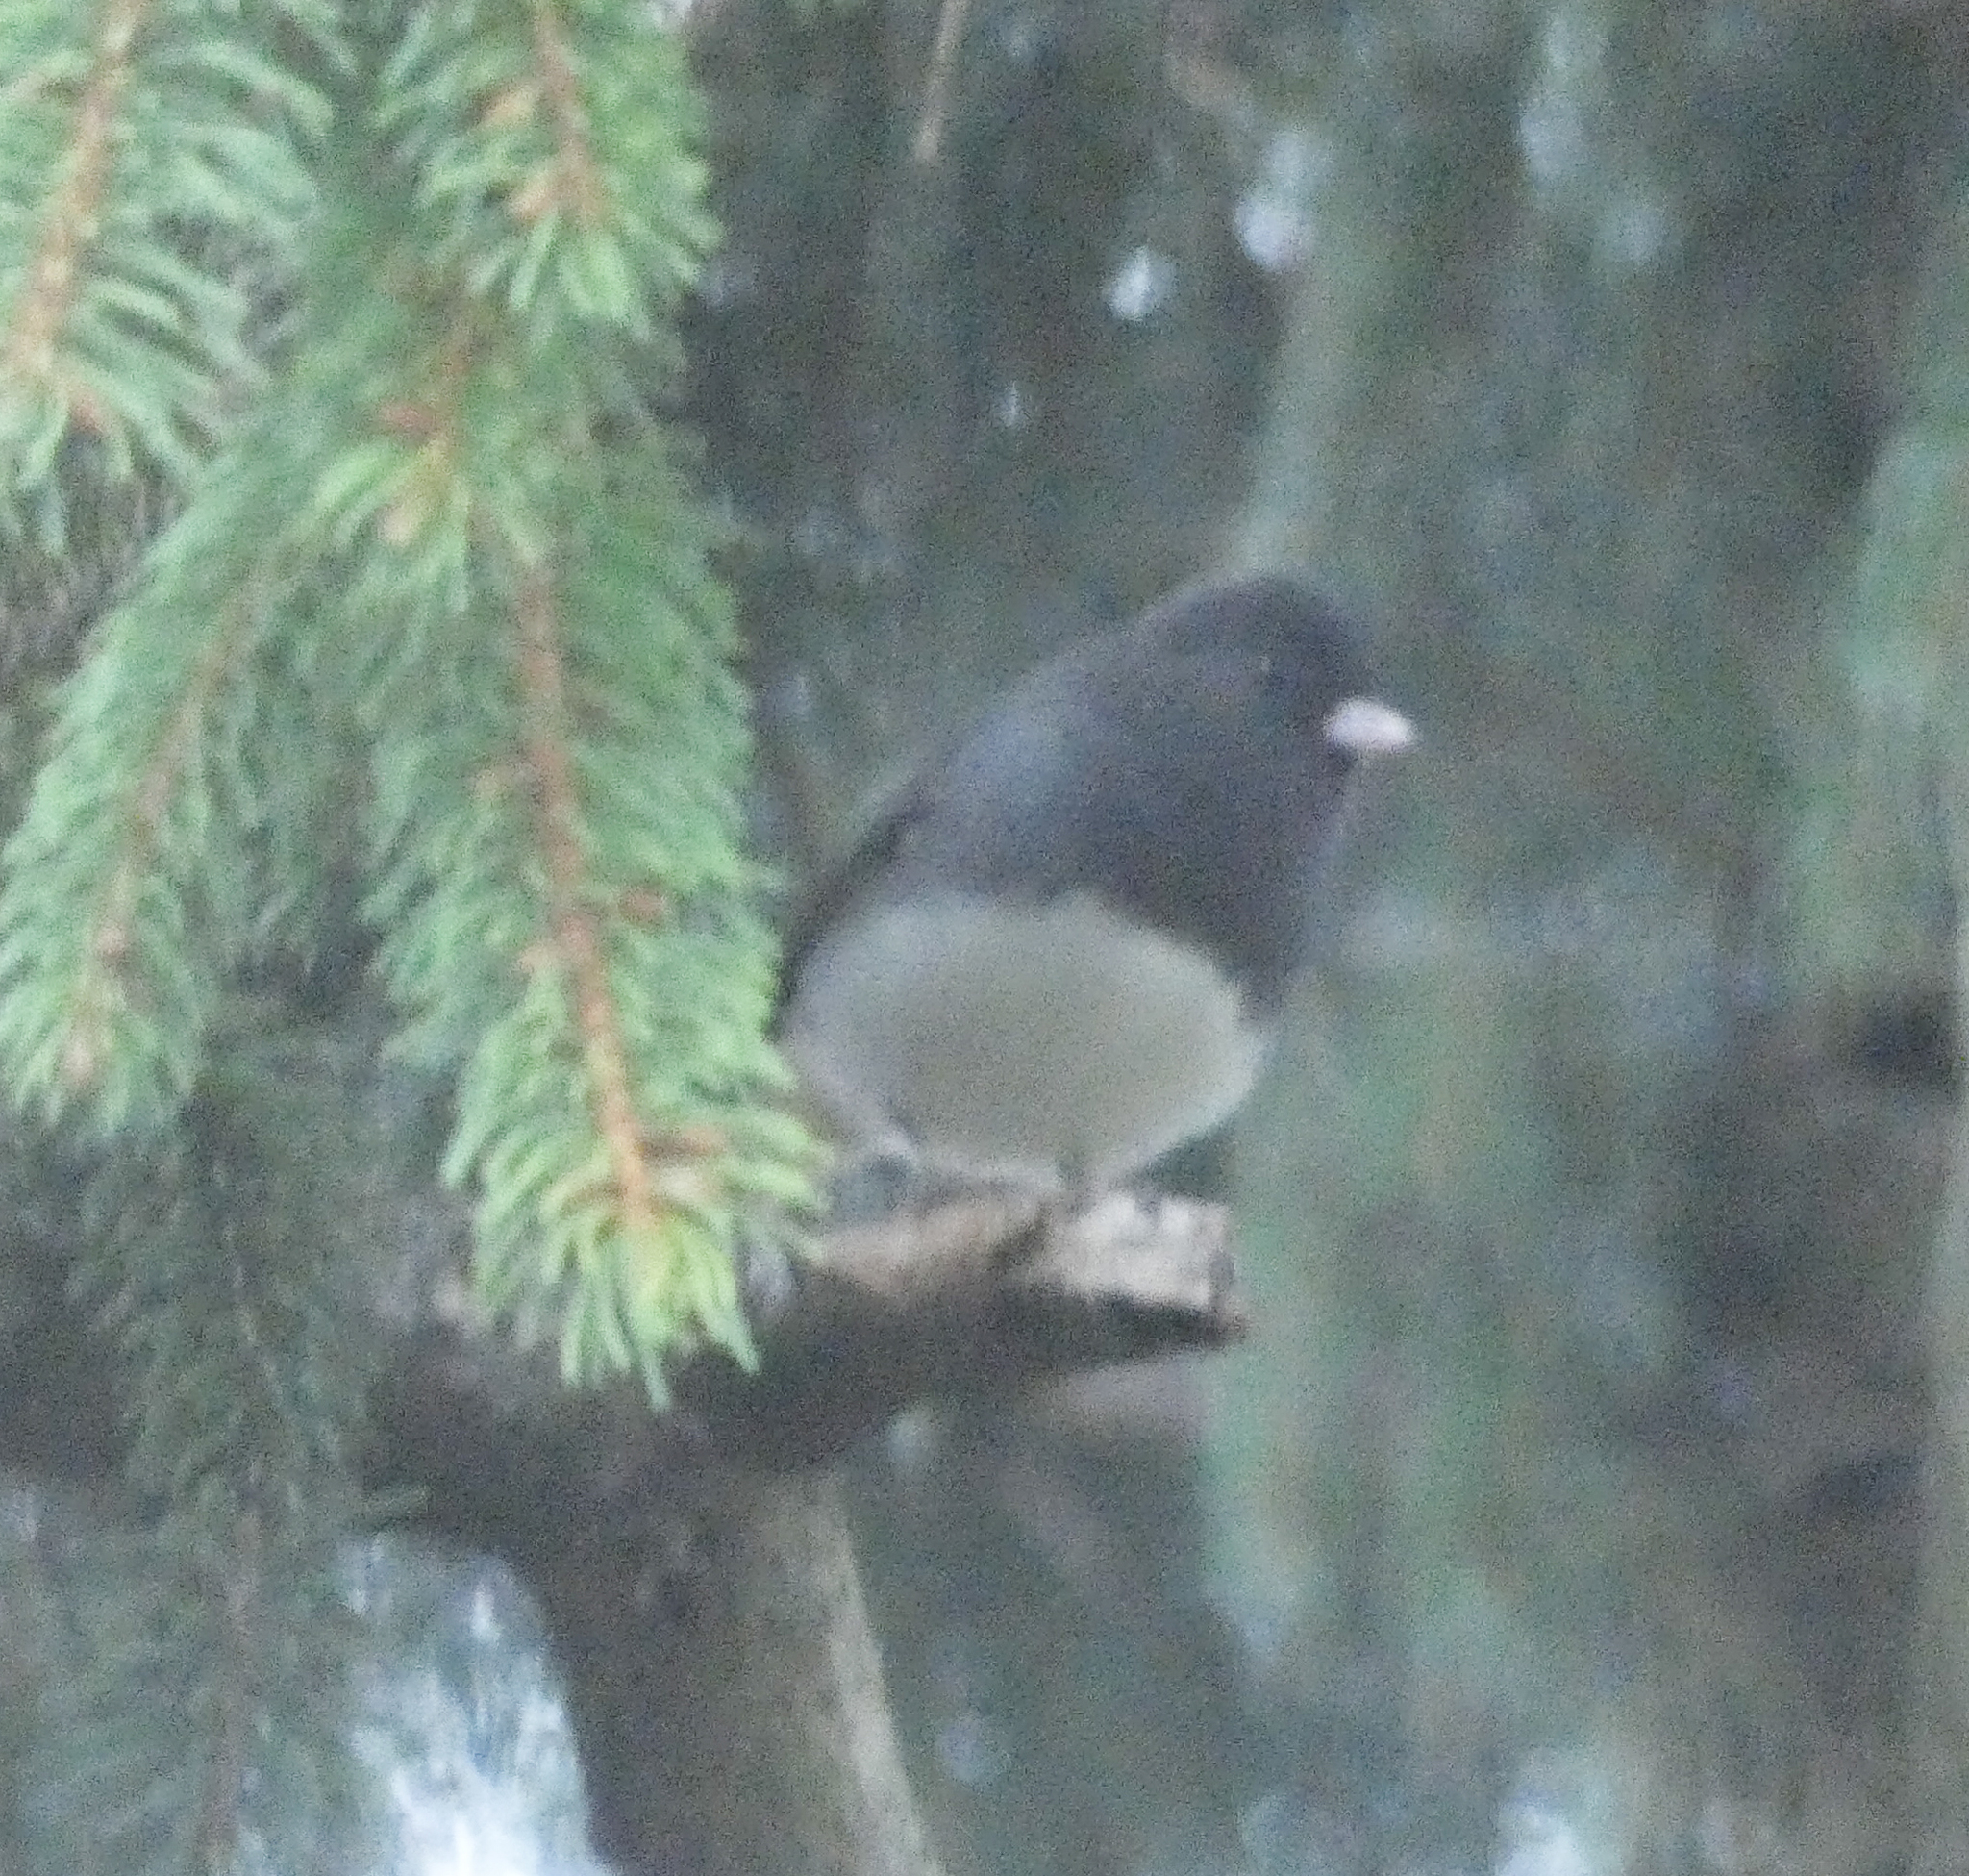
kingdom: Animalia
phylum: Chordata
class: Aves
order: Passeriformes
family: Passerellidae
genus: Junco
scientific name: Junco hyemalis
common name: Dark-eyed junco
